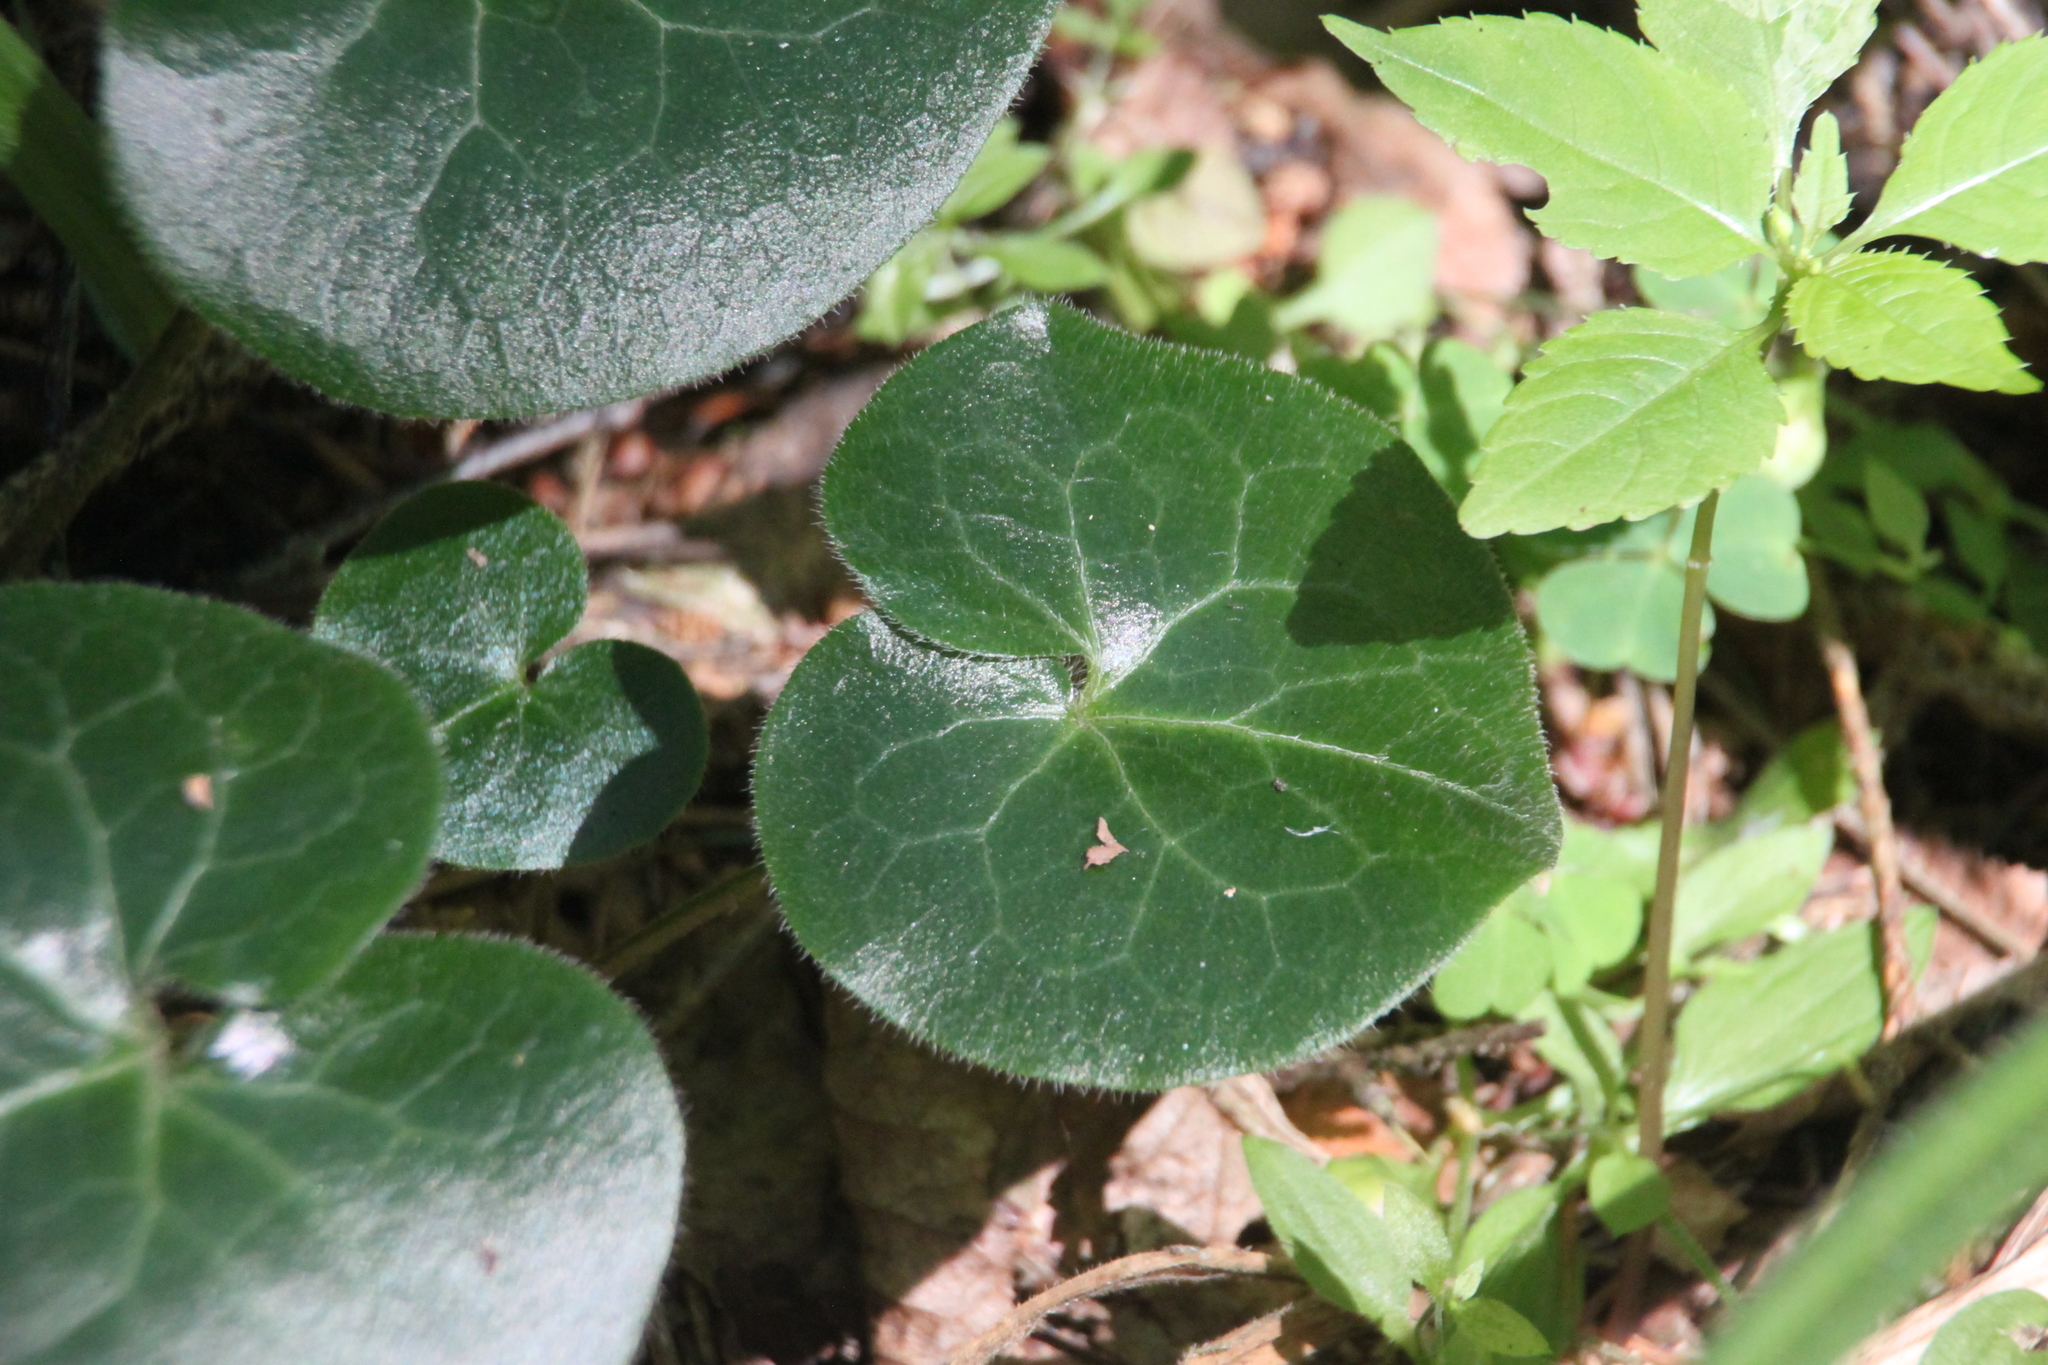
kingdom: Plantae
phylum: Tracheophyta
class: Magnoliopsida
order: Piperales
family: Aristolochiaceae
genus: Asarum
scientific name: Asarum europaeum
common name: Asarabacca
